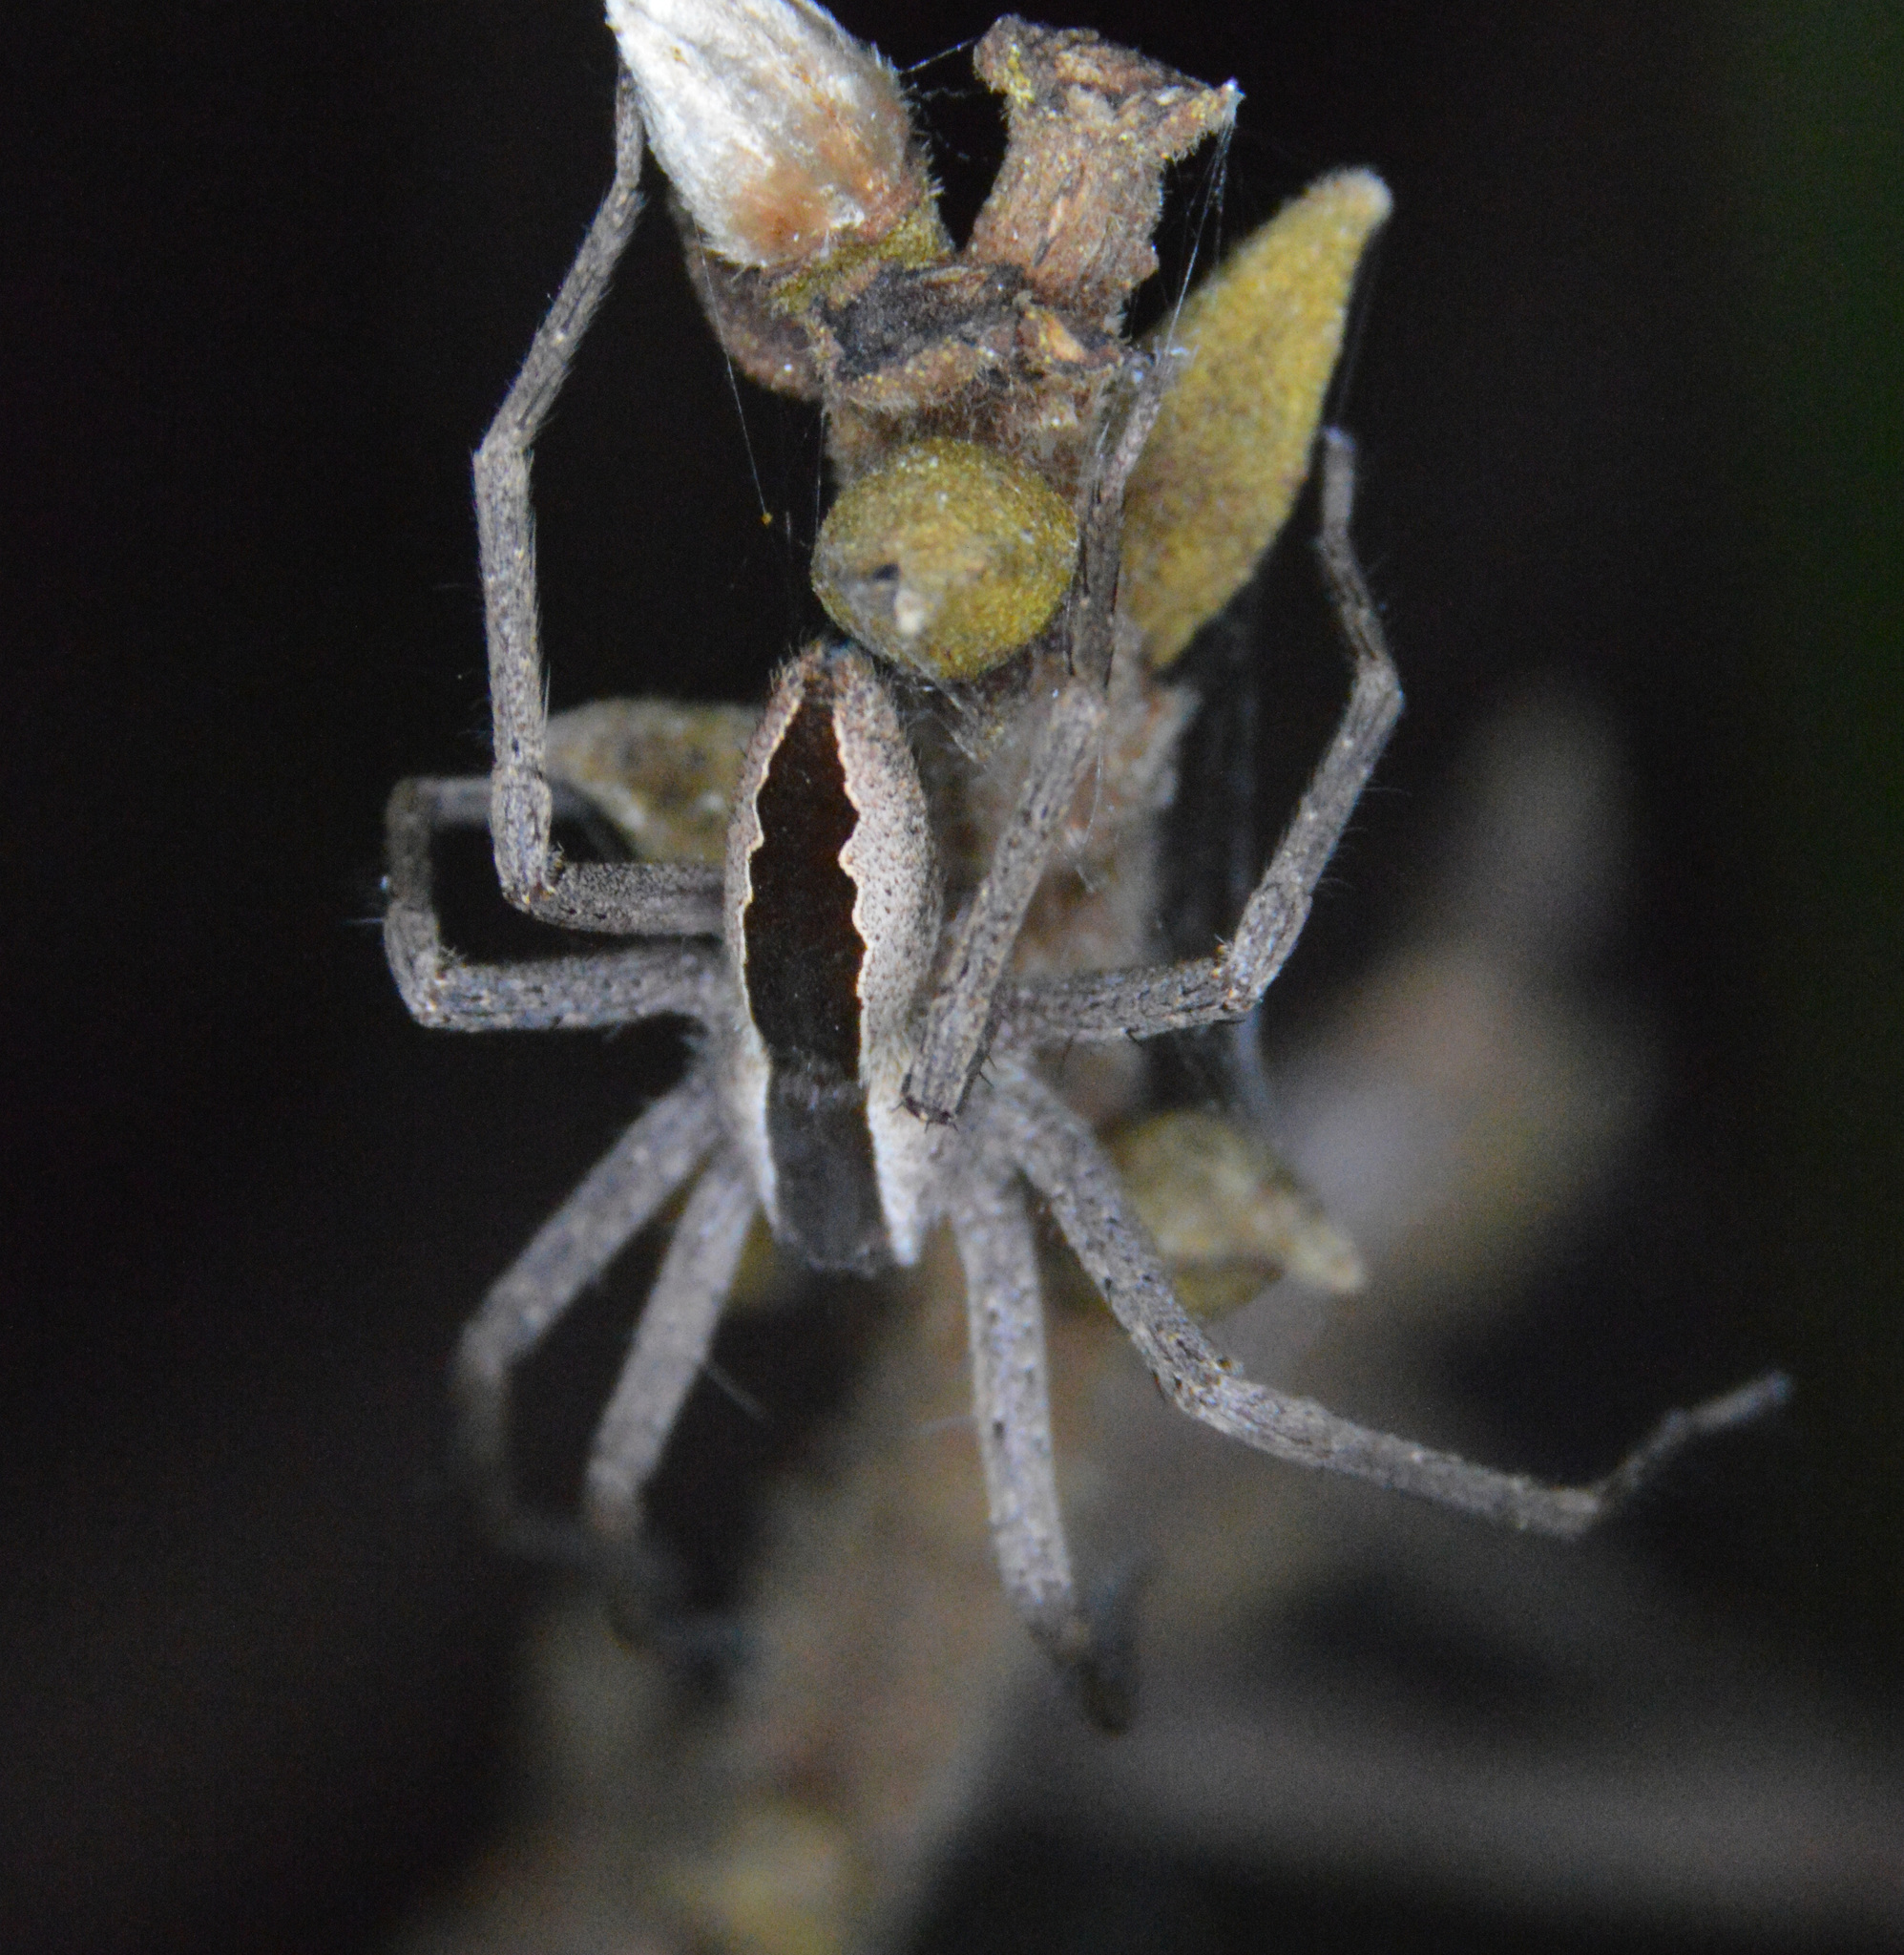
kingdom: Animalia
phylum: Arthropoda
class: Arachnida
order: Araneae
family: Pisauridae
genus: Pisaurina
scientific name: Pisaurina mira
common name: American nursery web spider
